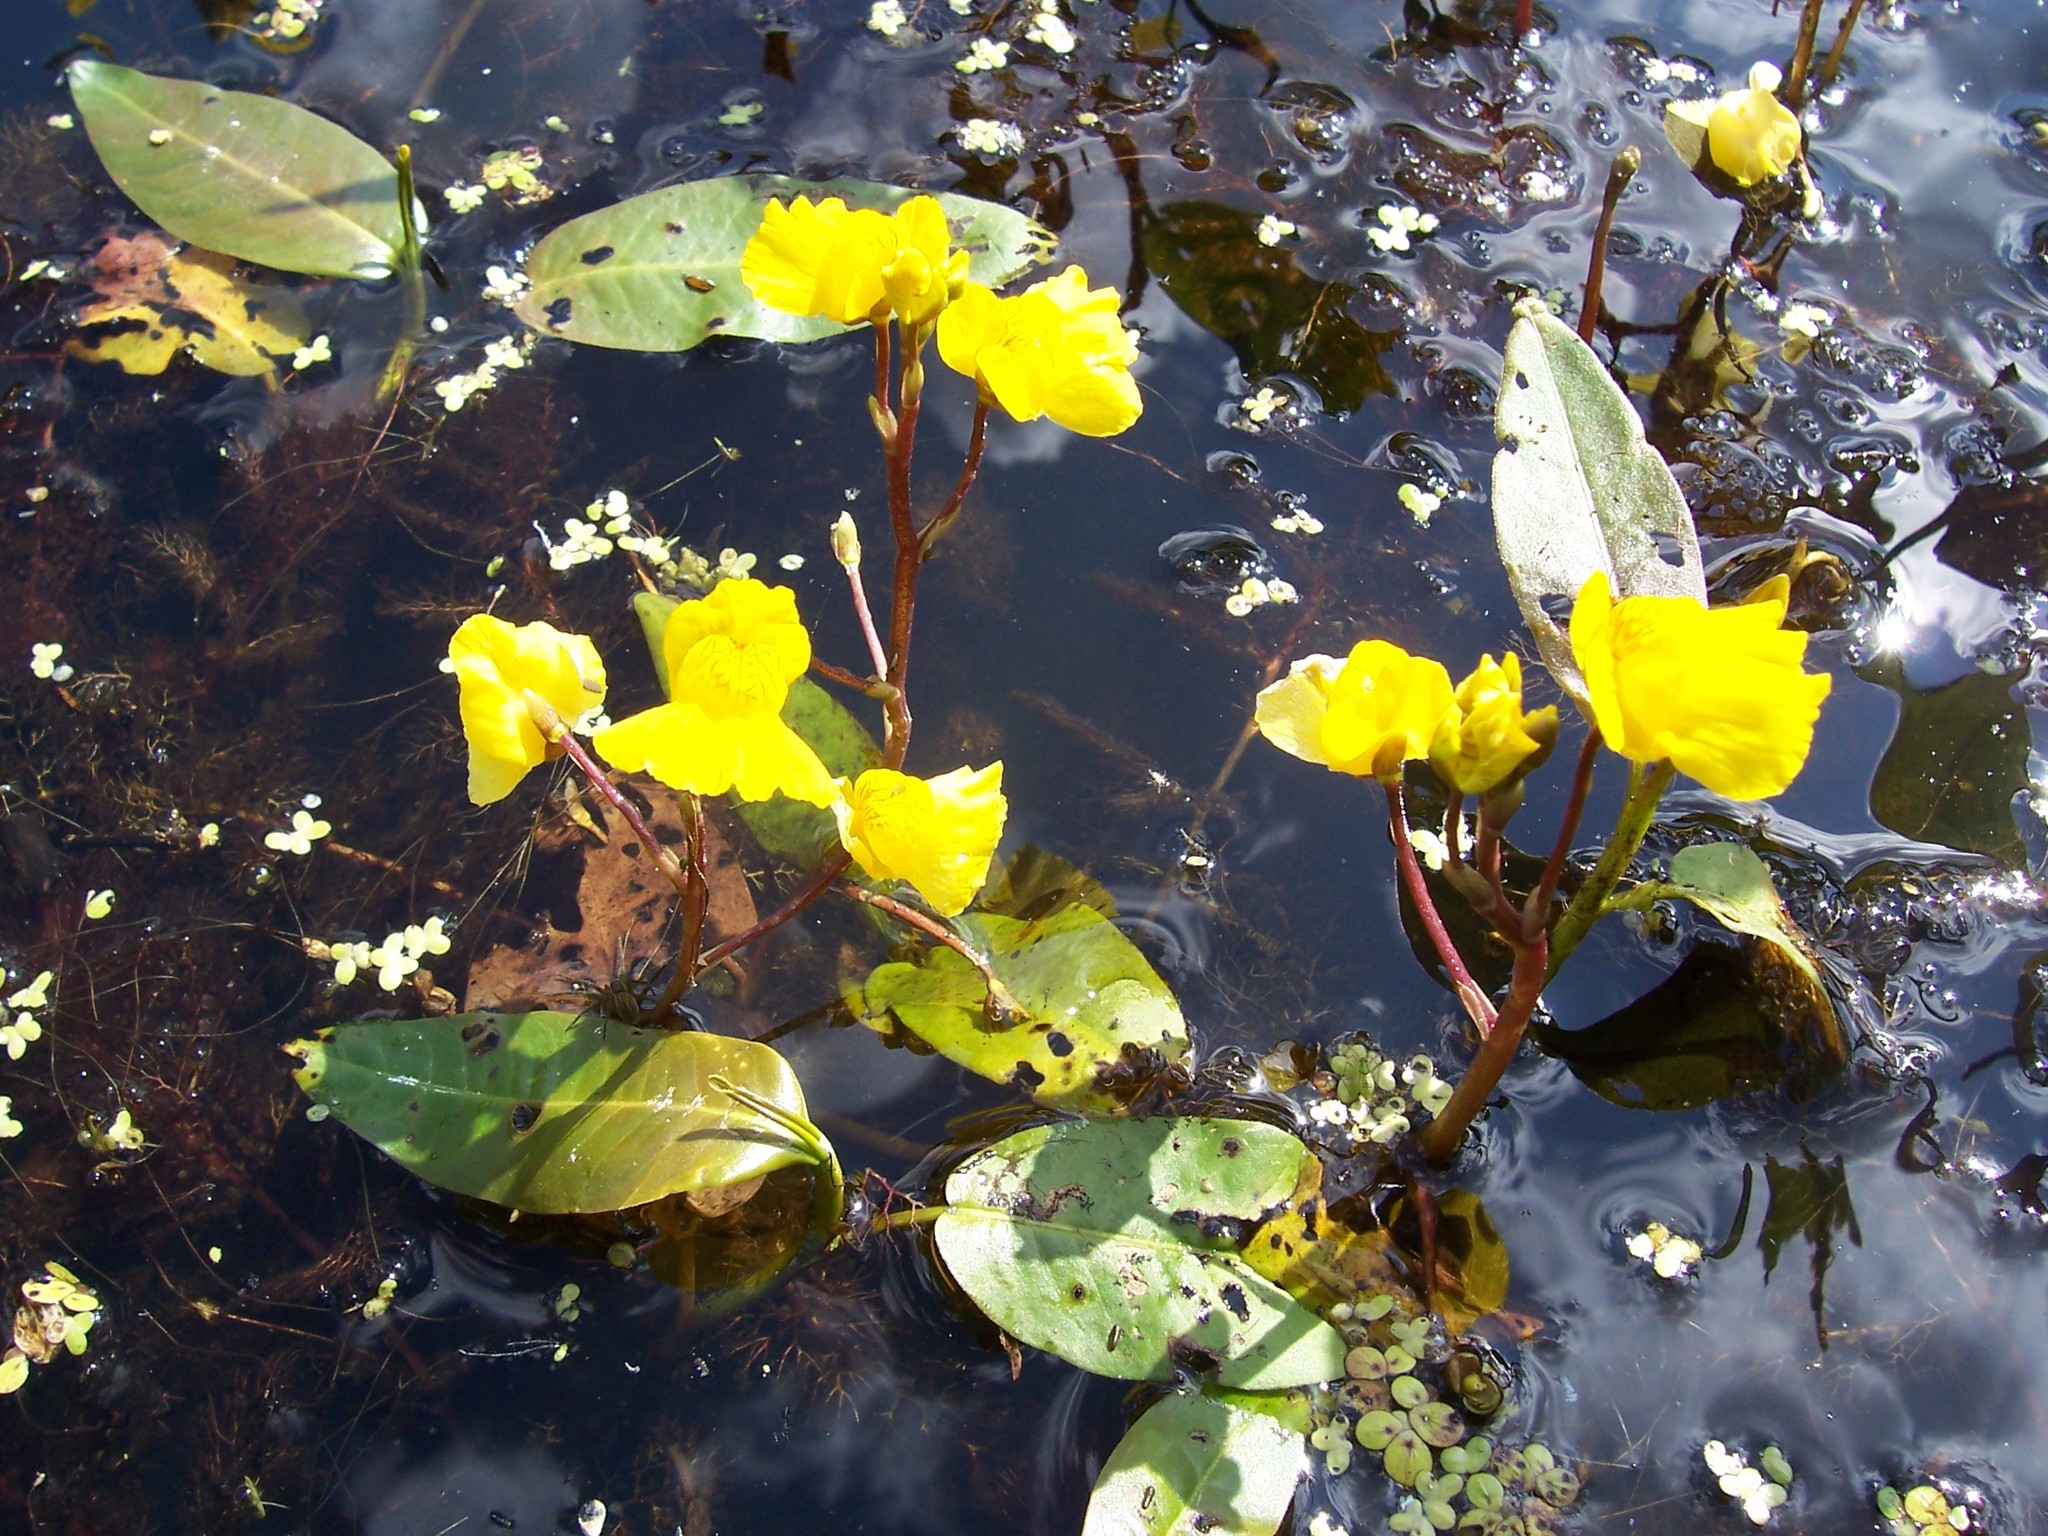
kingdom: Plantae
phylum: Tracheophyta
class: Magnoliopsida
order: Lamiales
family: Lentibulariaceae
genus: Utricularia
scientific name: Utricularia macrorhiza
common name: Common bladderwort
